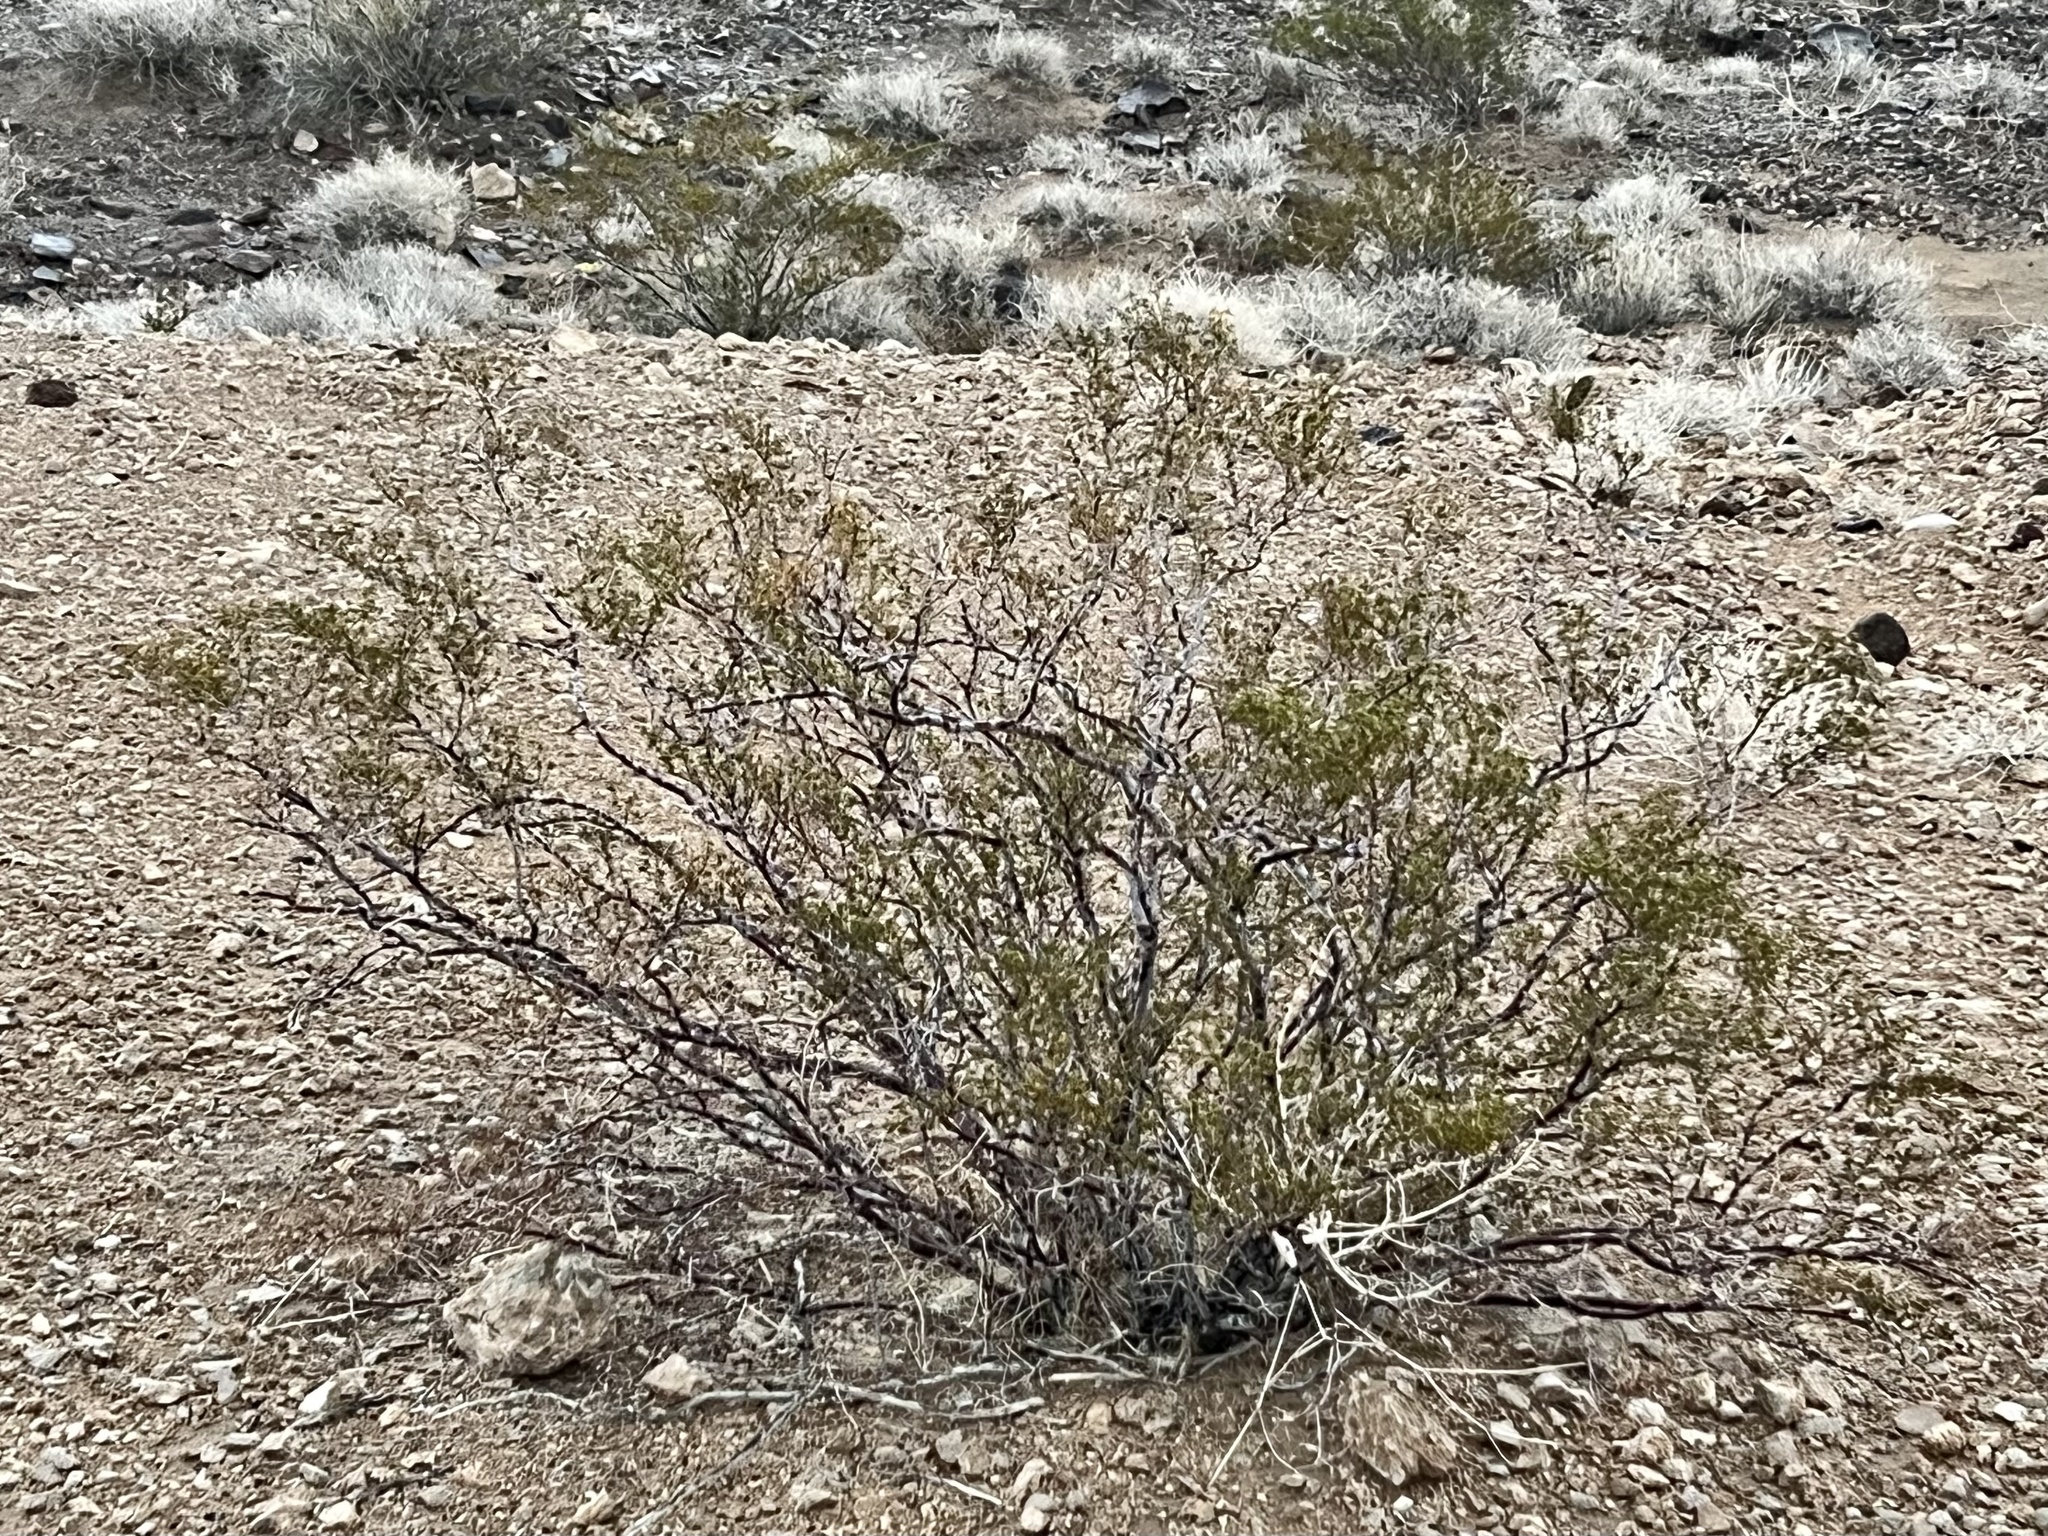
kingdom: Plantae
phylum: Tracheophyta
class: Magnoliopsida
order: Zygophyllales
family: Zygophyllaceae
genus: Larrea
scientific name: Larrea tridentata
